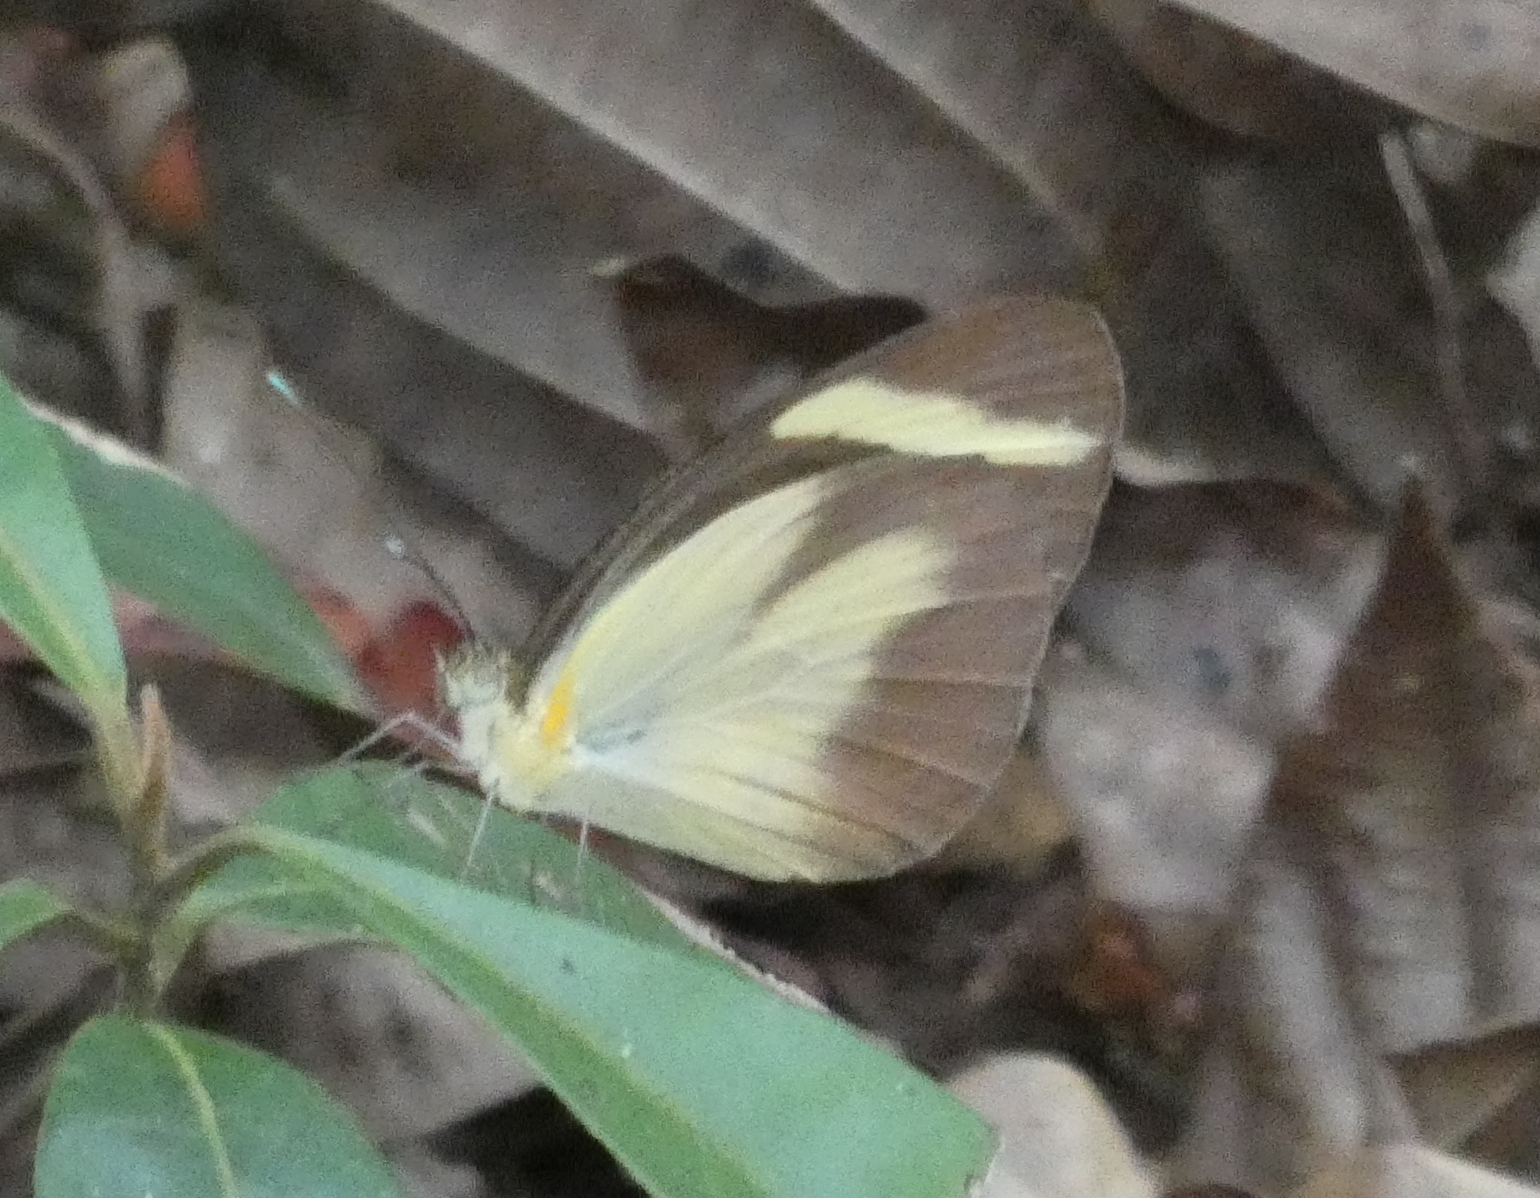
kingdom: Animalia
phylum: Arthropoda
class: Insecta
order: Lepidoptera
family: Pieridae
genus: Itaballia
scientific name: Itaballia demophile
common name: Cross-barred white
